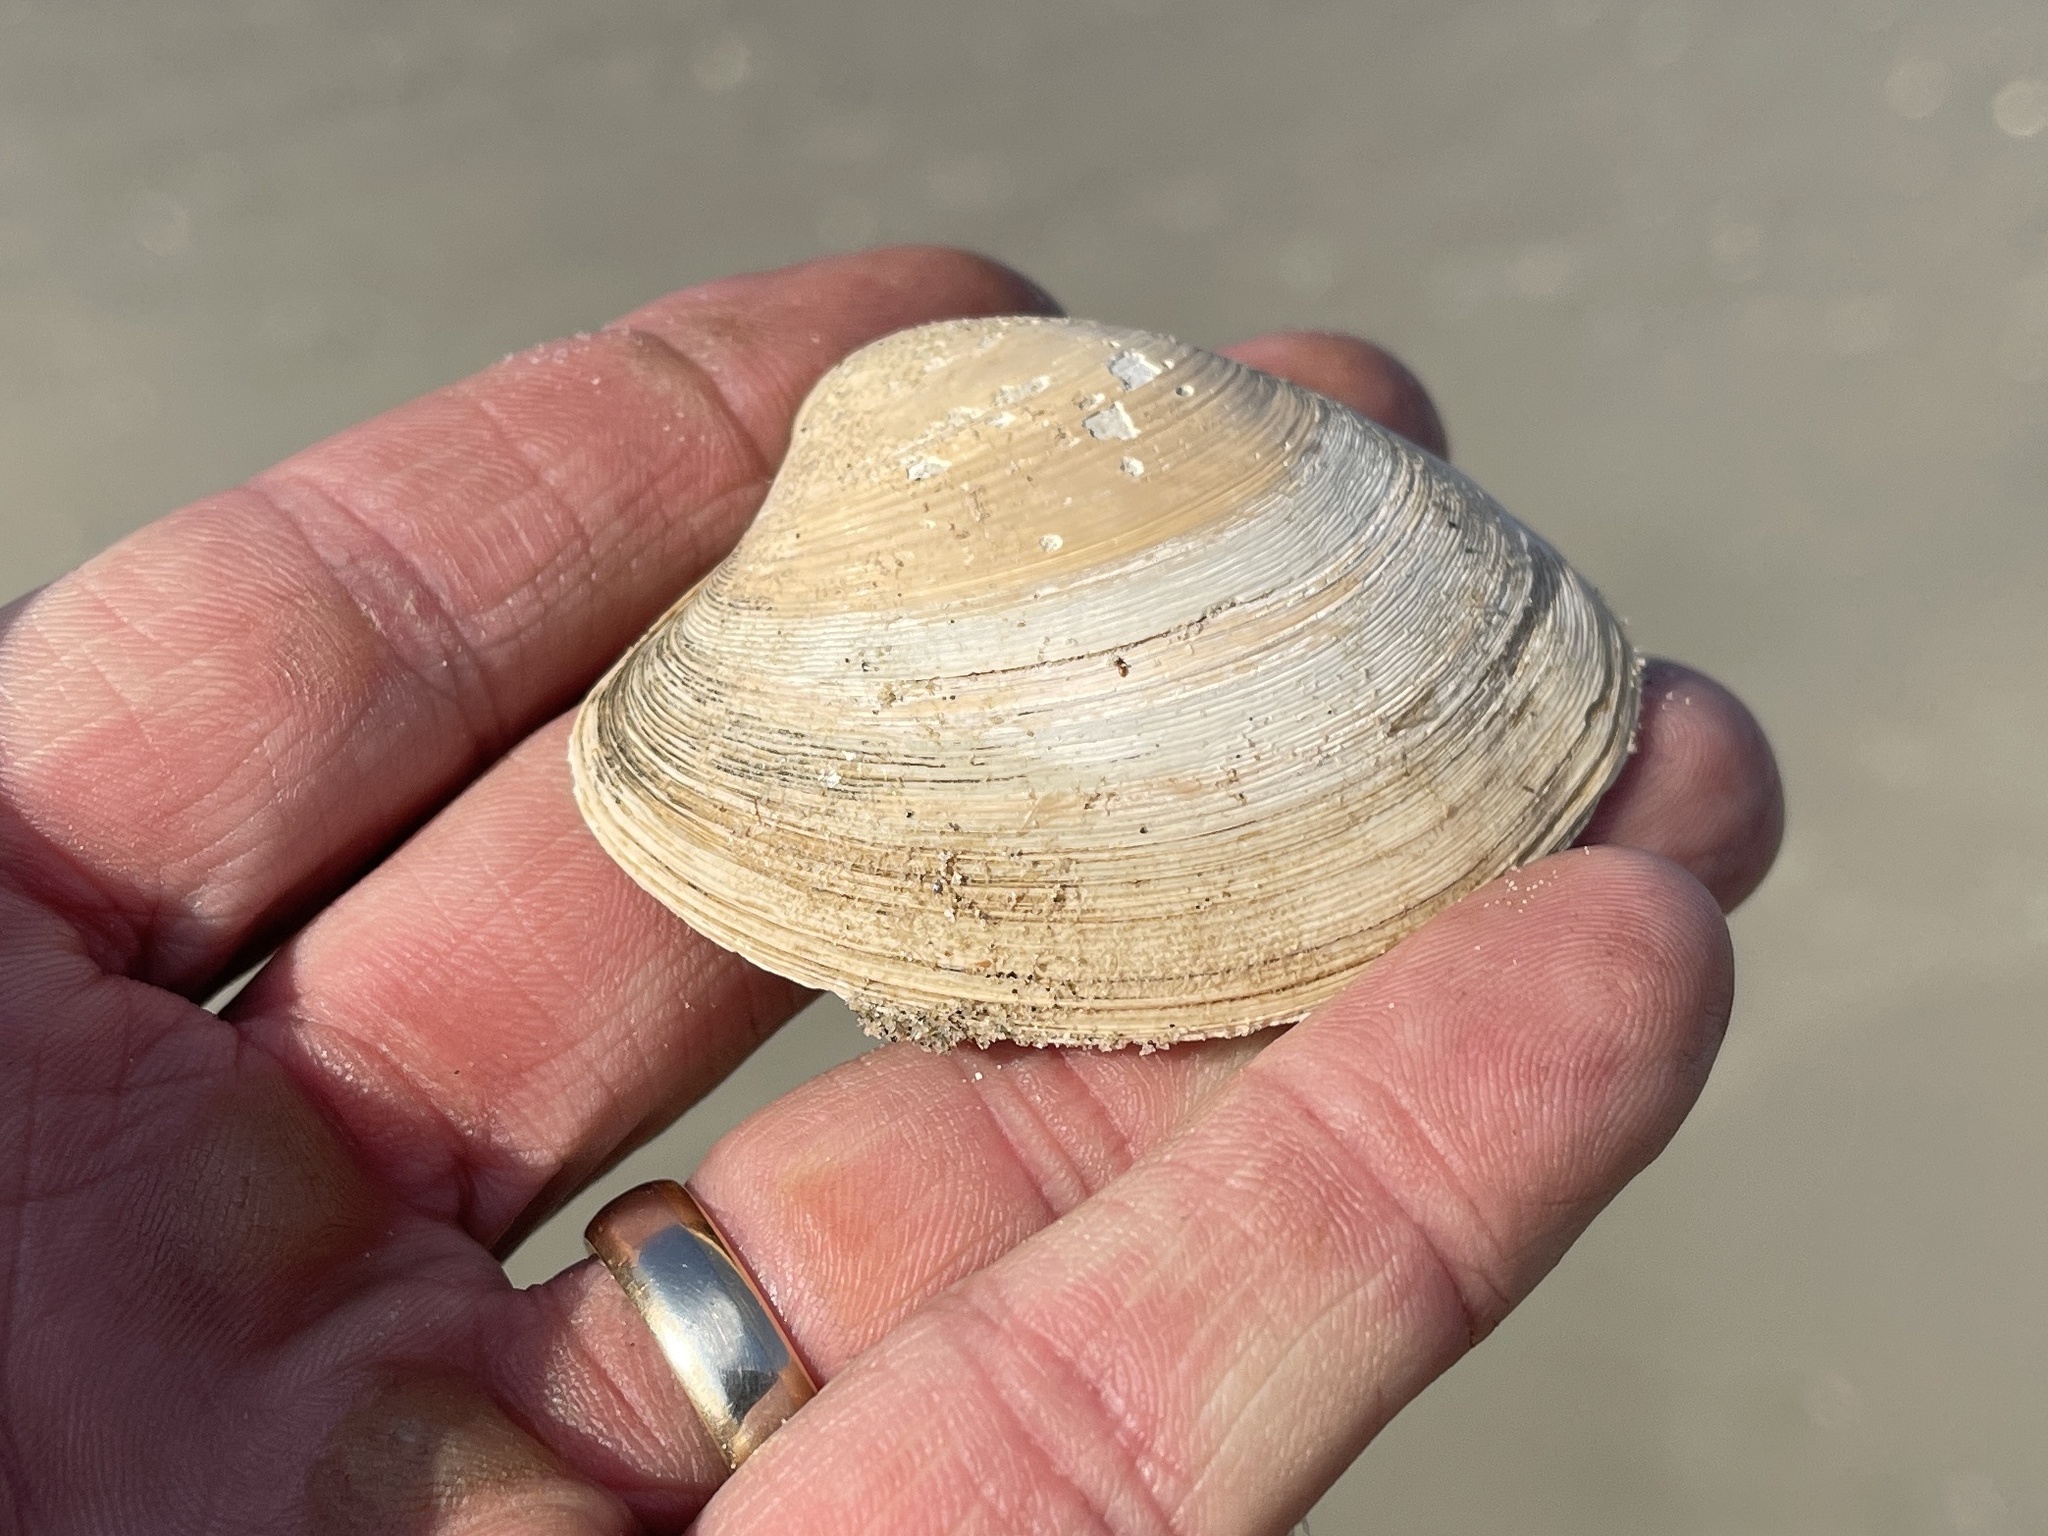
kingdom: Animalia
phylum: Mollusca
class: Bivalvia
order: Venerida
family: Veneridae
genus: Agriopoma
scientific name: Agriopoma texasianum
